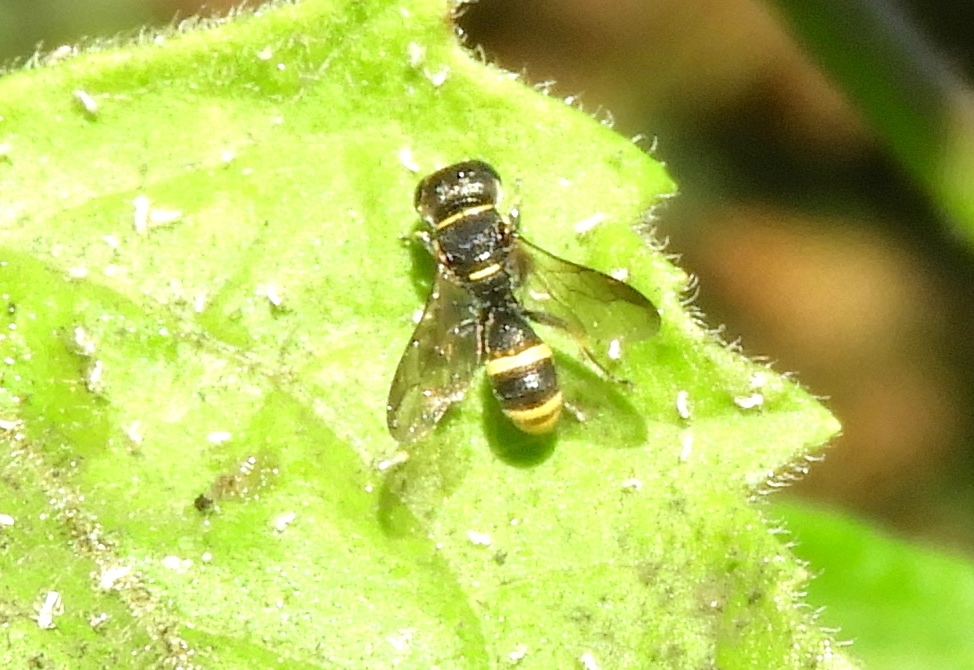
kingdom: Animalia
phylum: Arthropoda
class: Insecta
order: Hymenoptera
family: Crabronidae
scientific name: Crabronidae
